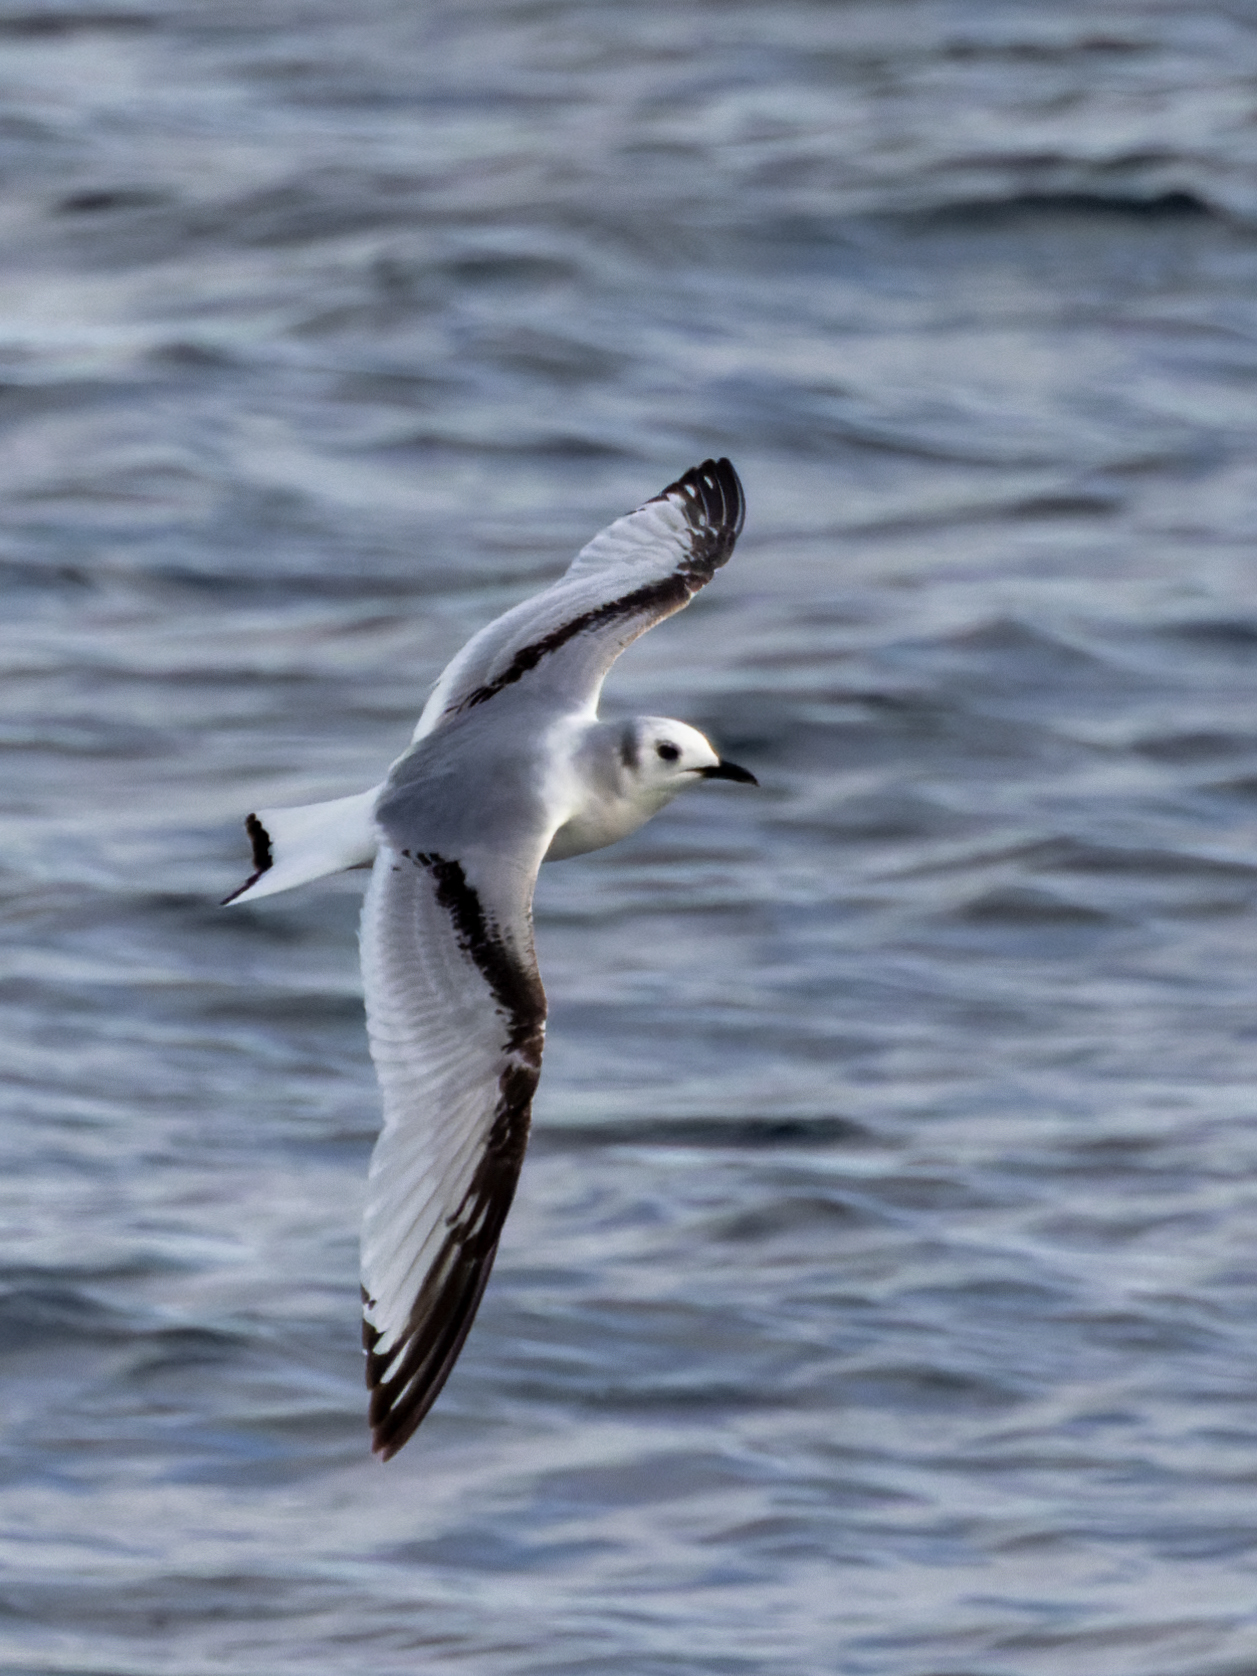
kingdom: Animalia
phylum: Chordata
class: Aves
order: Charadriiformes
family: Laridae
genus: Rissa
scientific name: Rissa tridactyla
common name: Black-legged kittiwake
